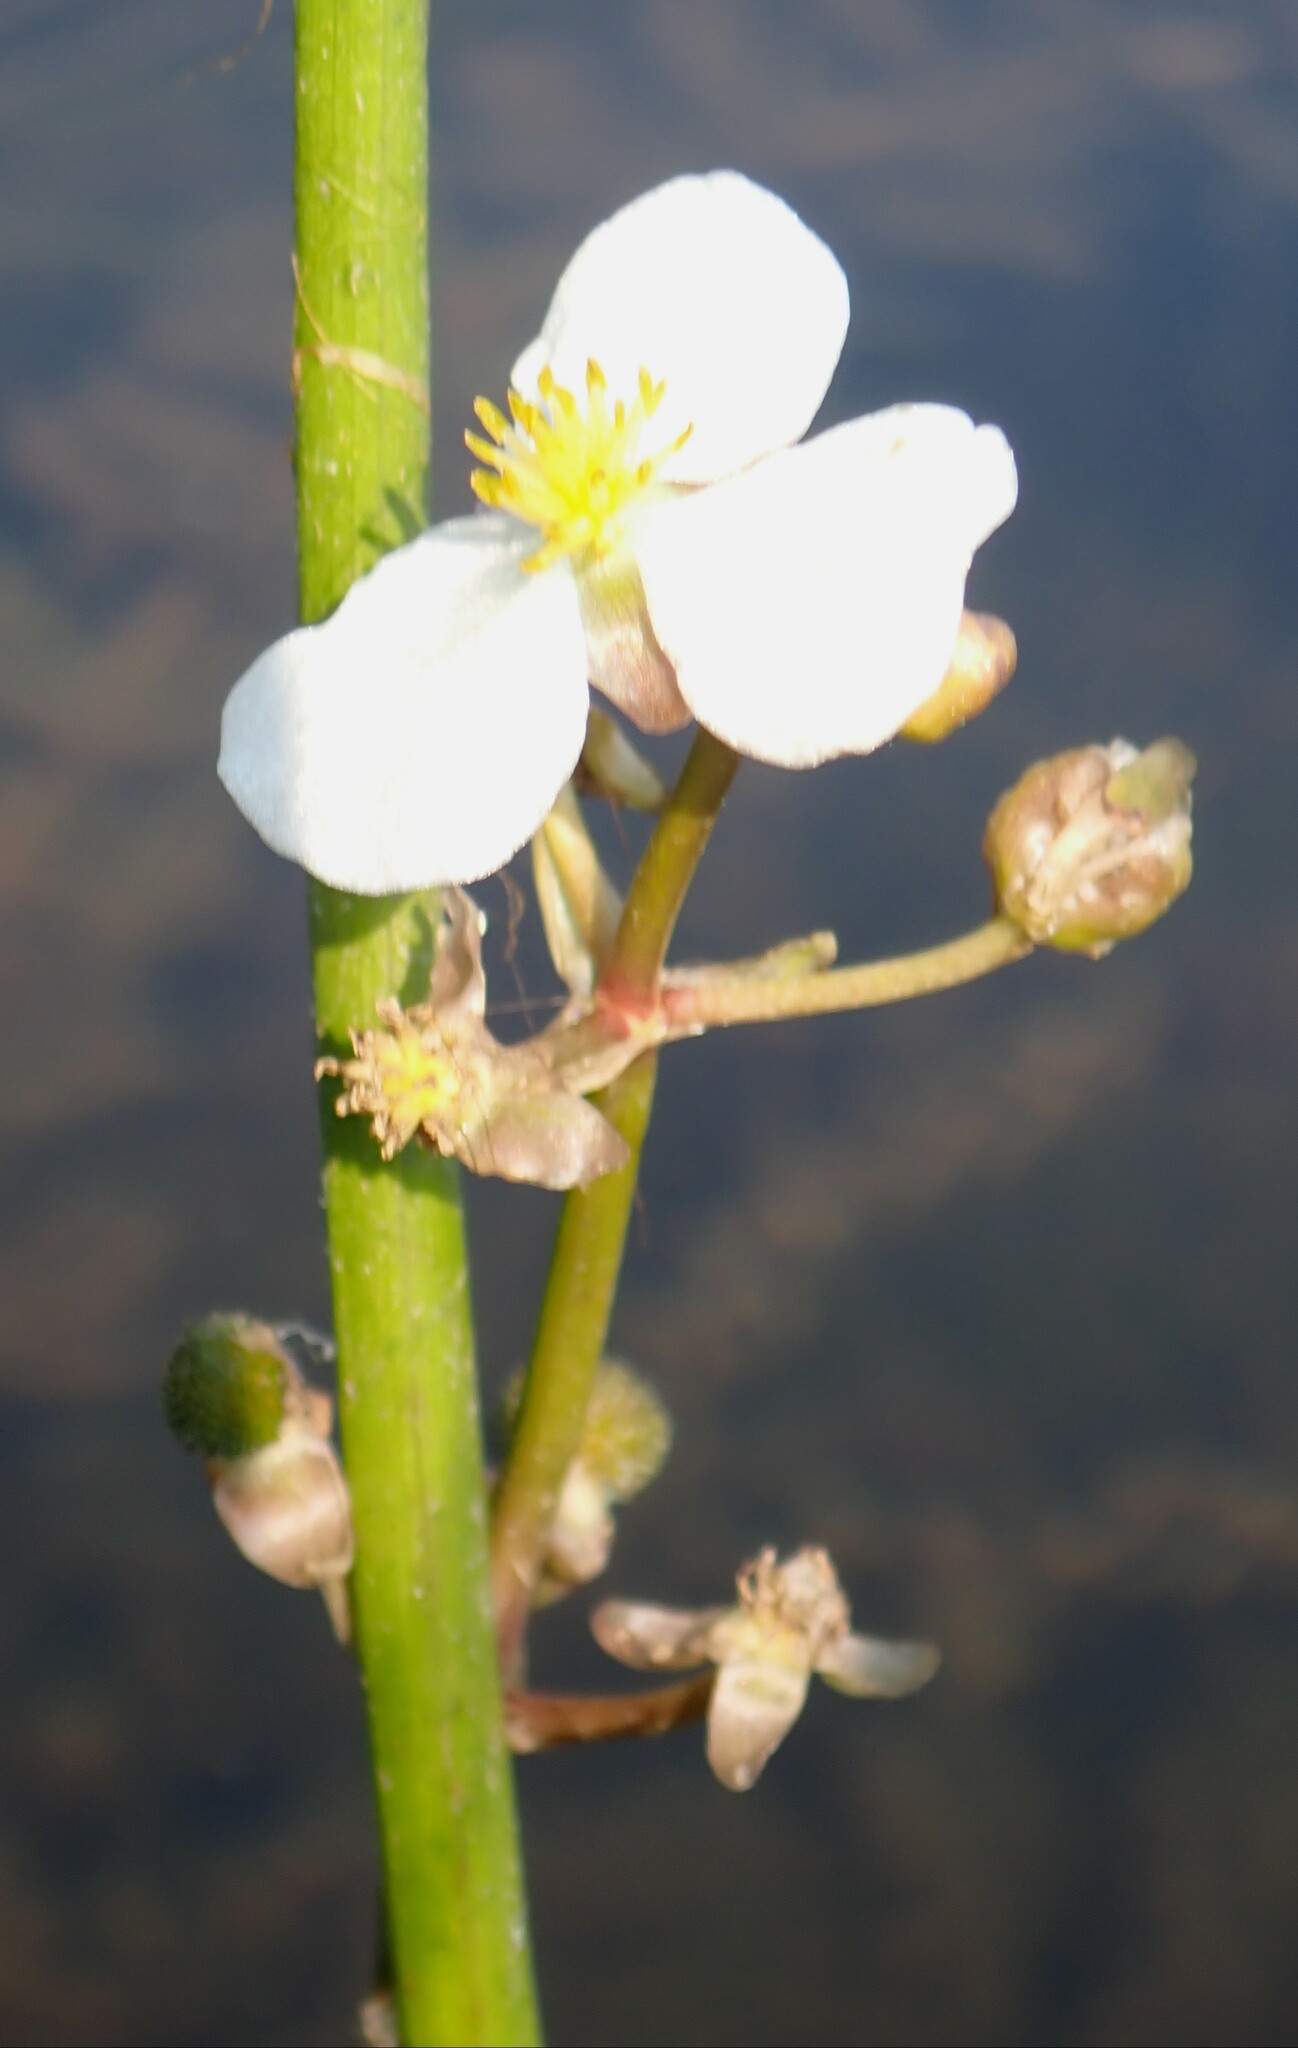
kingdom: Plantae
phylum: Tracheophyta
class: Liliopsida
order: Alismatales
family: Alismataceae
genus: Sagittaria
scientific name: Sagittaria cuneata
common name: Northern arrowhead
